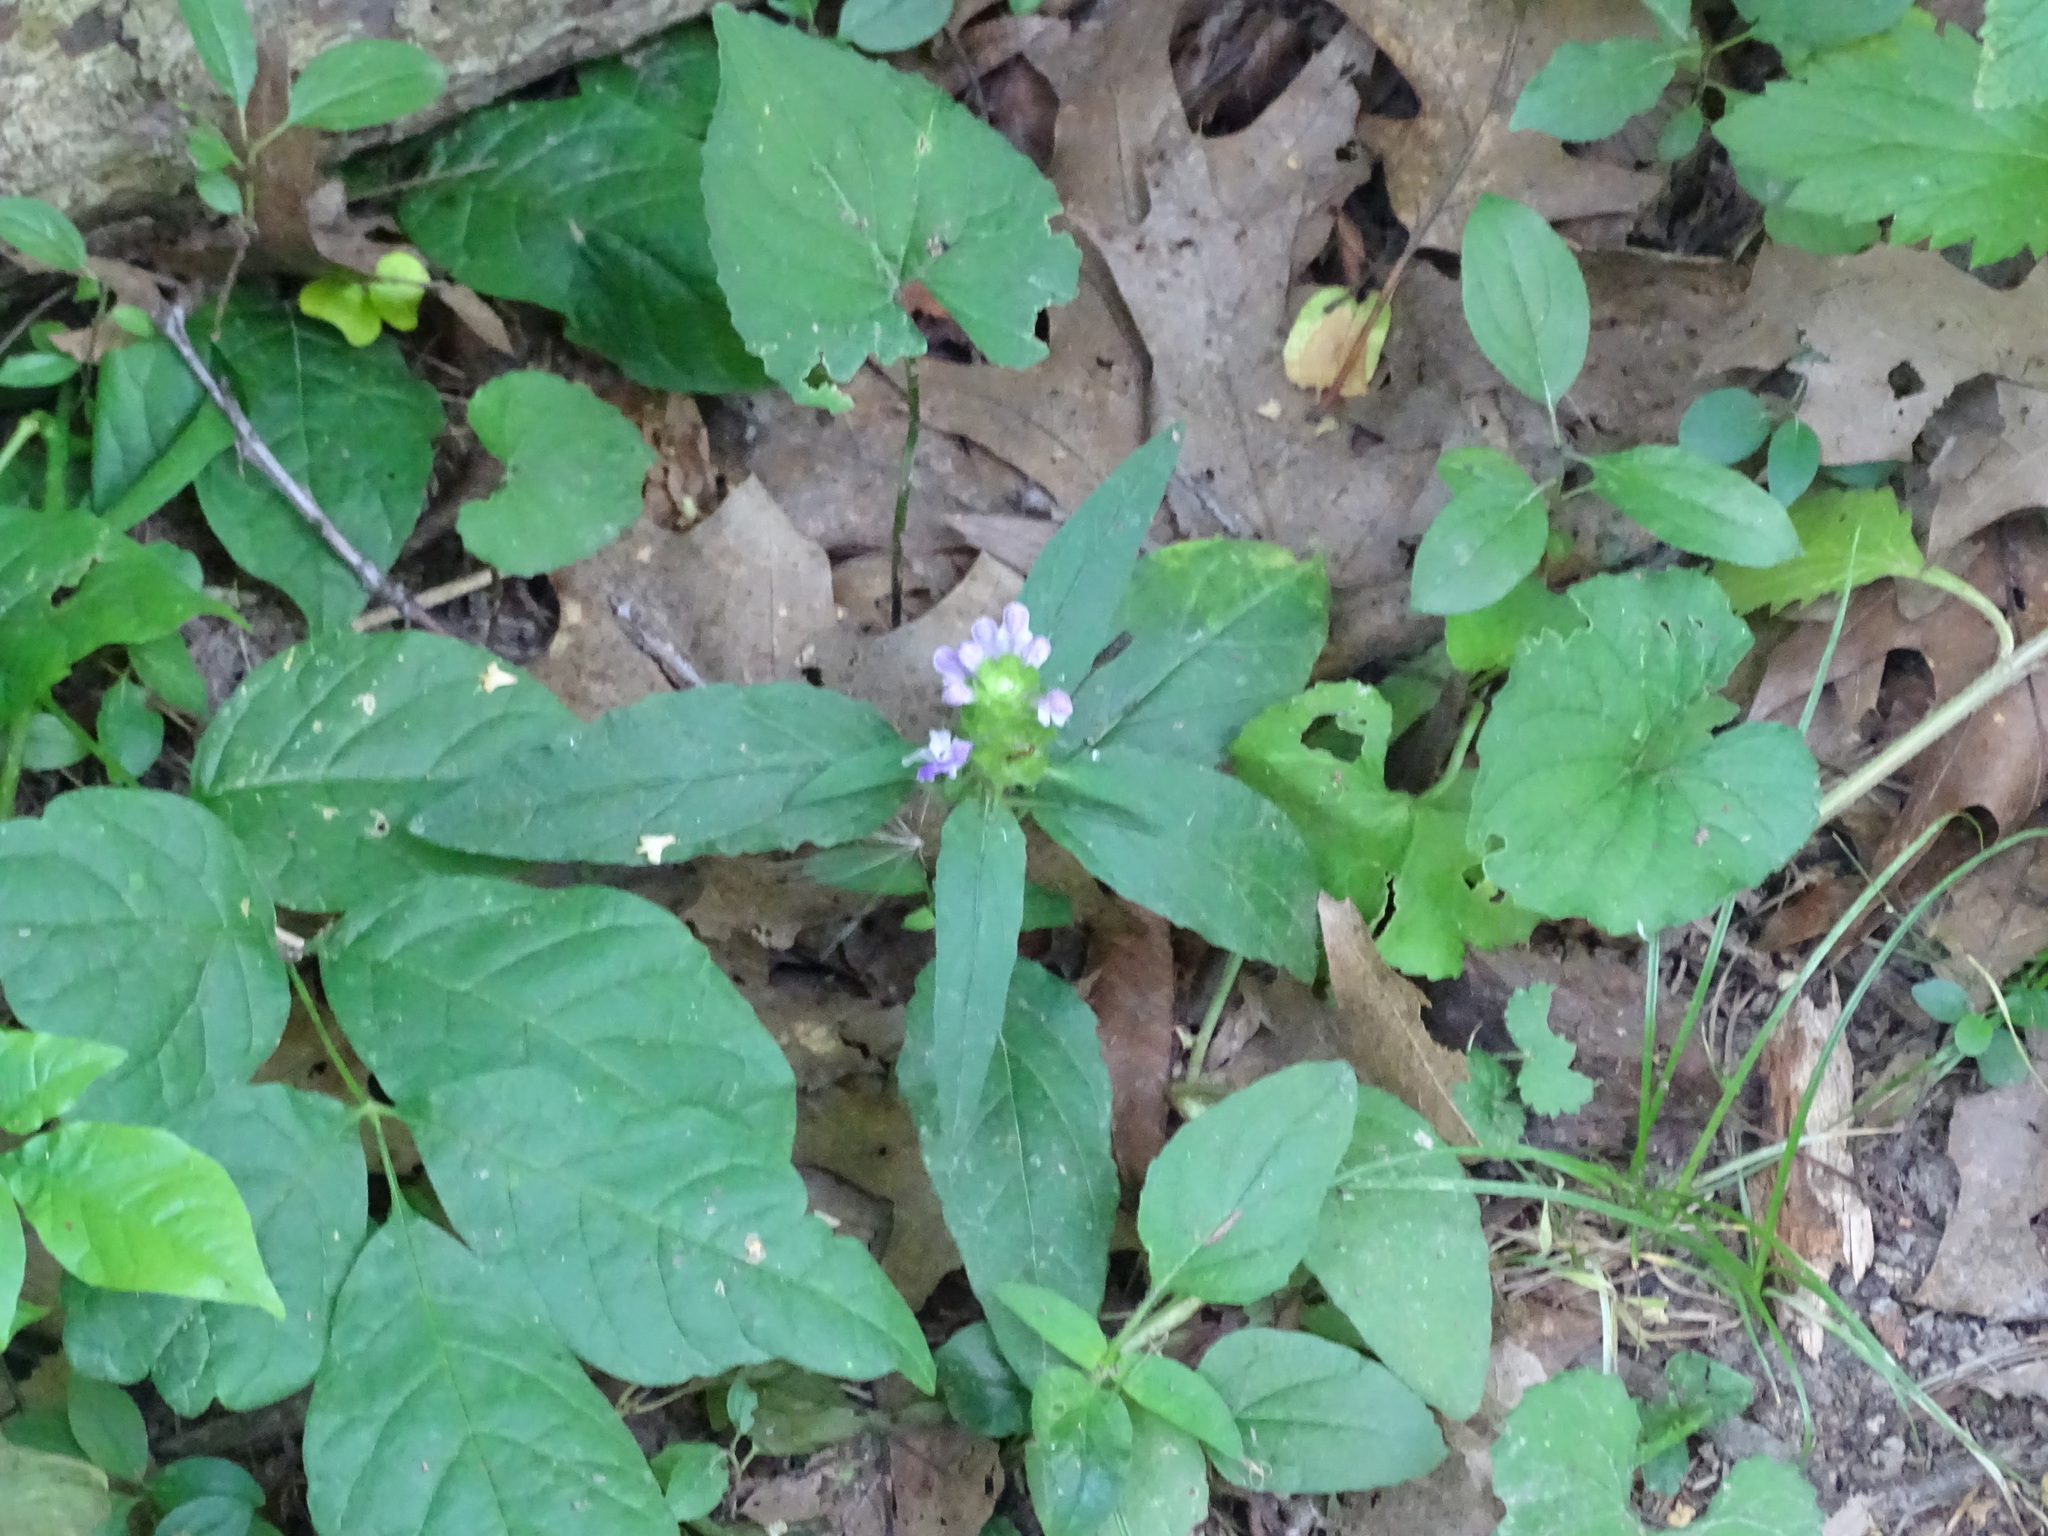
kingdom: Plantae
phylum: Tracheophyta
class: Magnoliopsida
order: Lamiales
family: Lamiaceae
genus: Prunella
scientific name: Prunella vulgaris
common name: Heal-all
